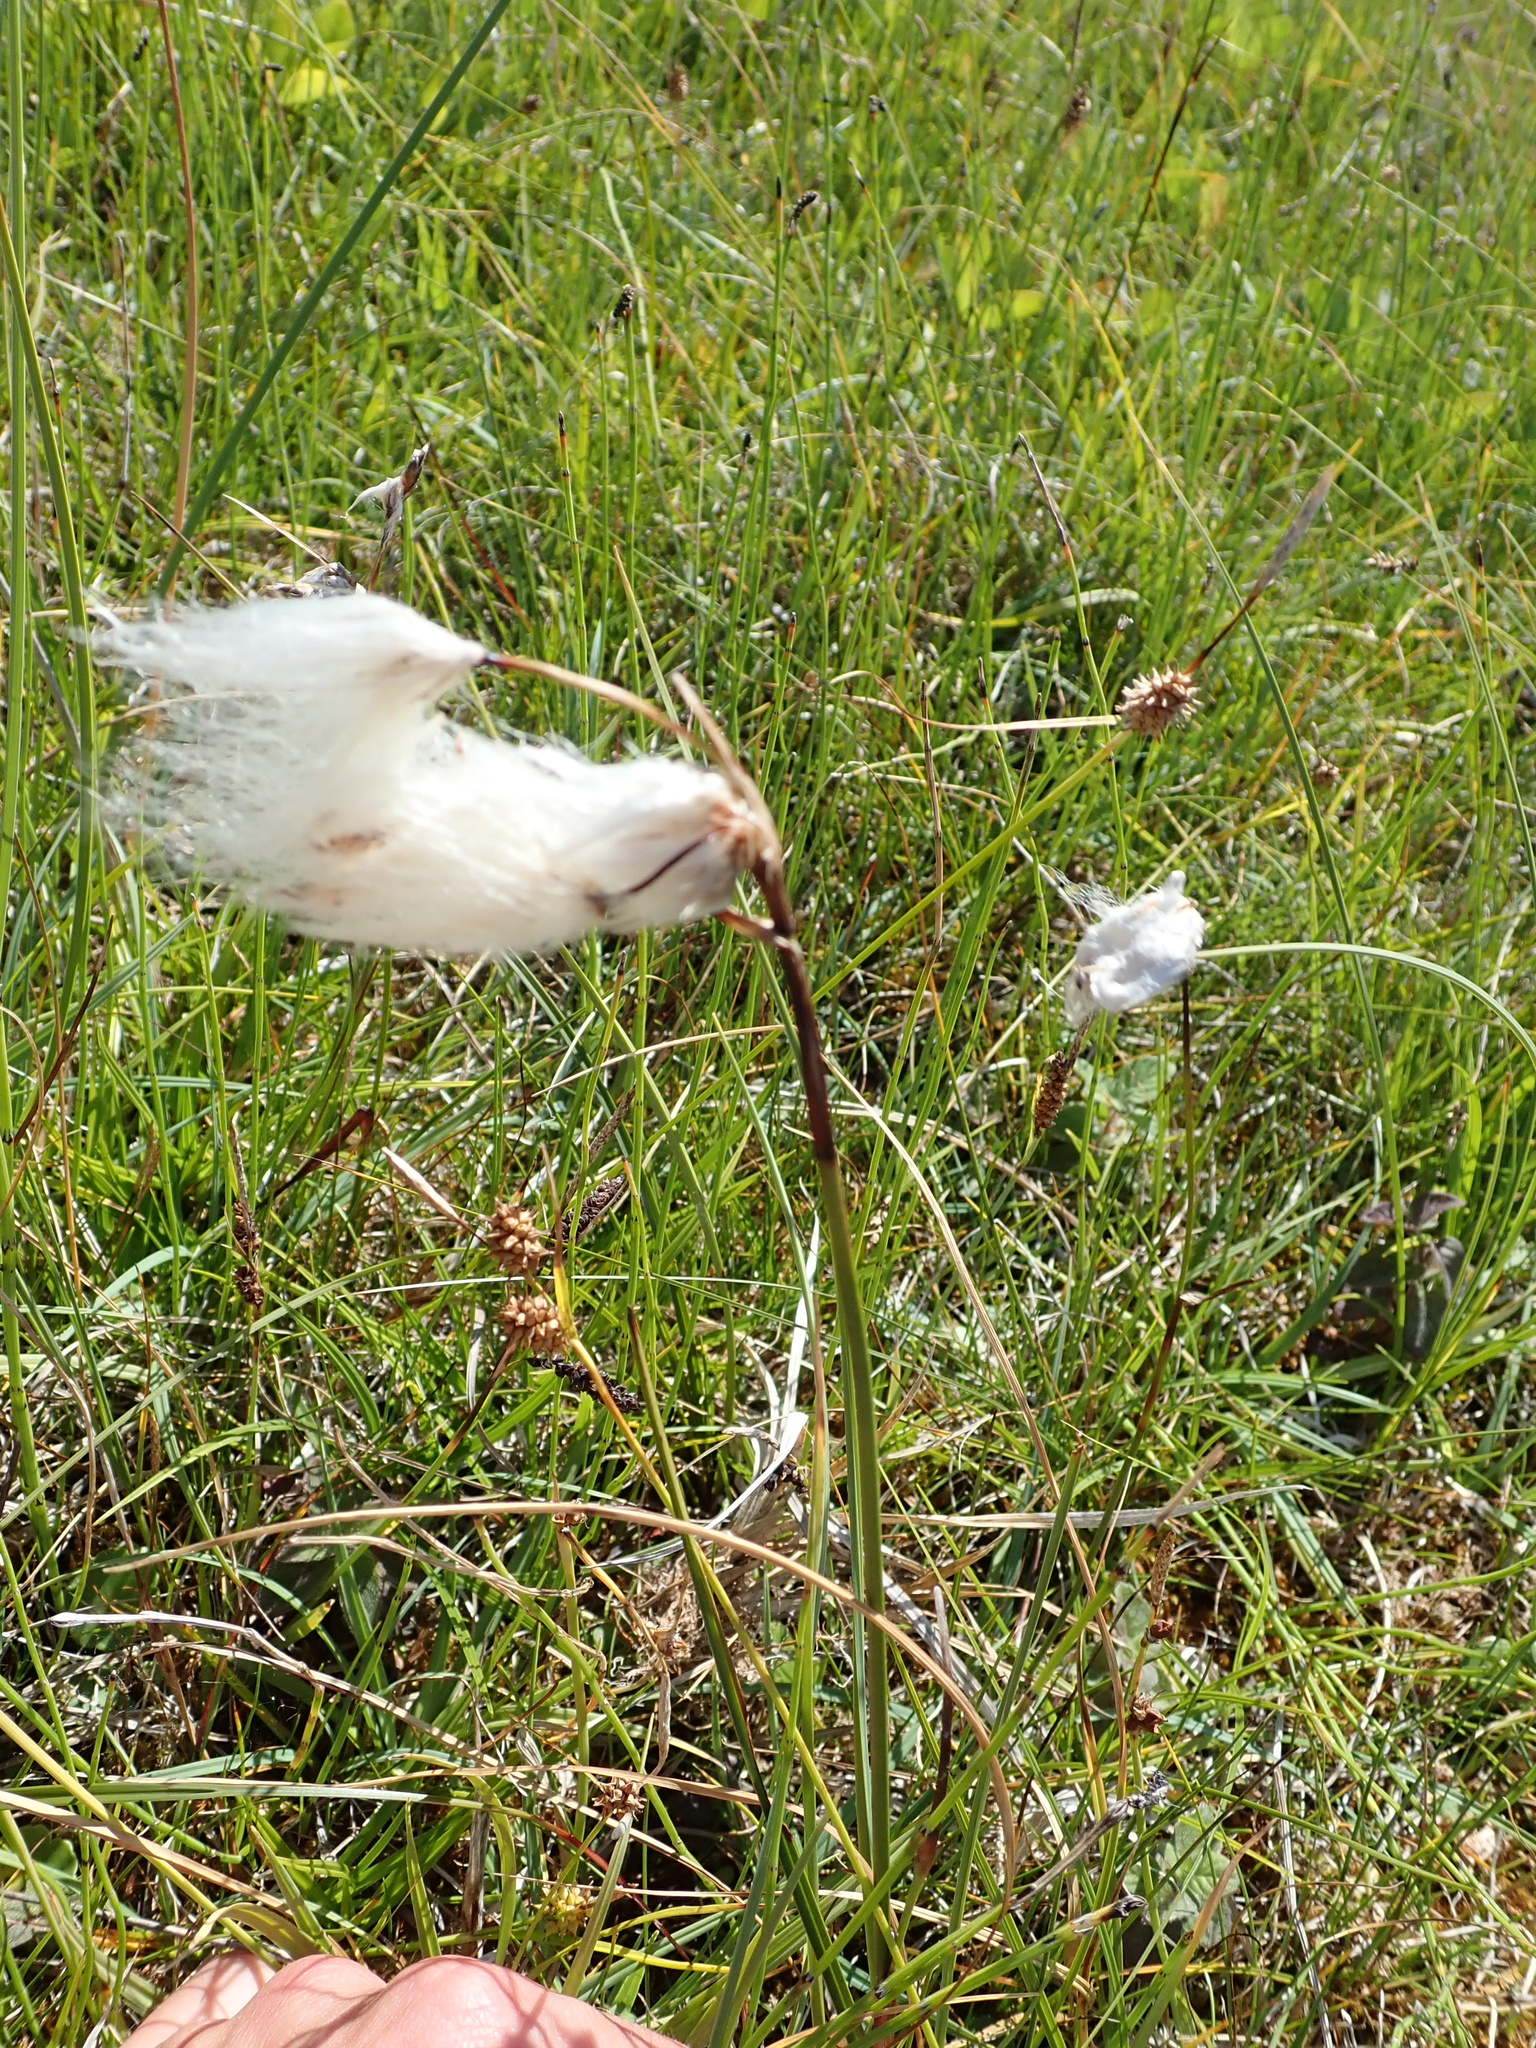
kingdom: Plantae
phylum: Tracheophyta
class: Liliopsida
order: Poales
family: Cyperaceae
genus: Eriophorum
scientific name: Eriophorum angustifolium
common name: Common cottongrass
